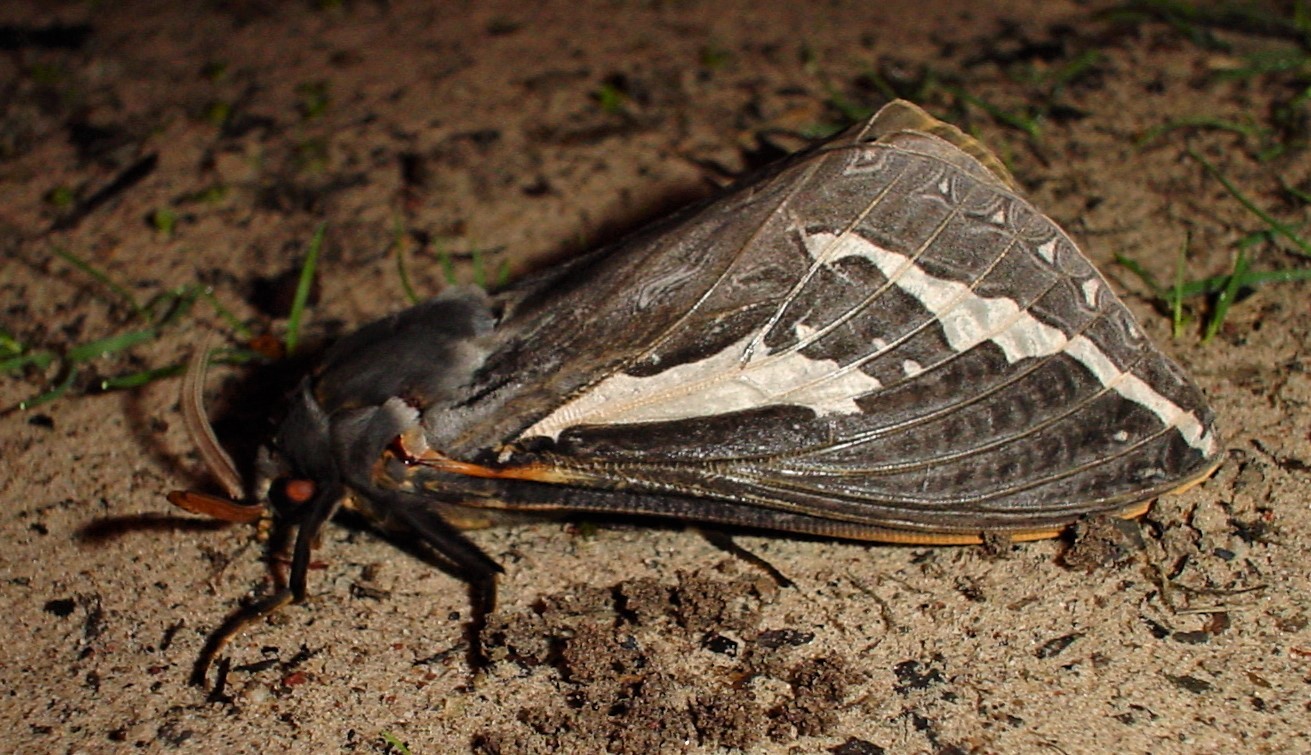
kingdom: Animalia
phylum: Arthropoda
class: Insecta
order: Lepidoptera
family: Hepialidae
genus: Abantiades
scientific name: Abantiades atripalpis
